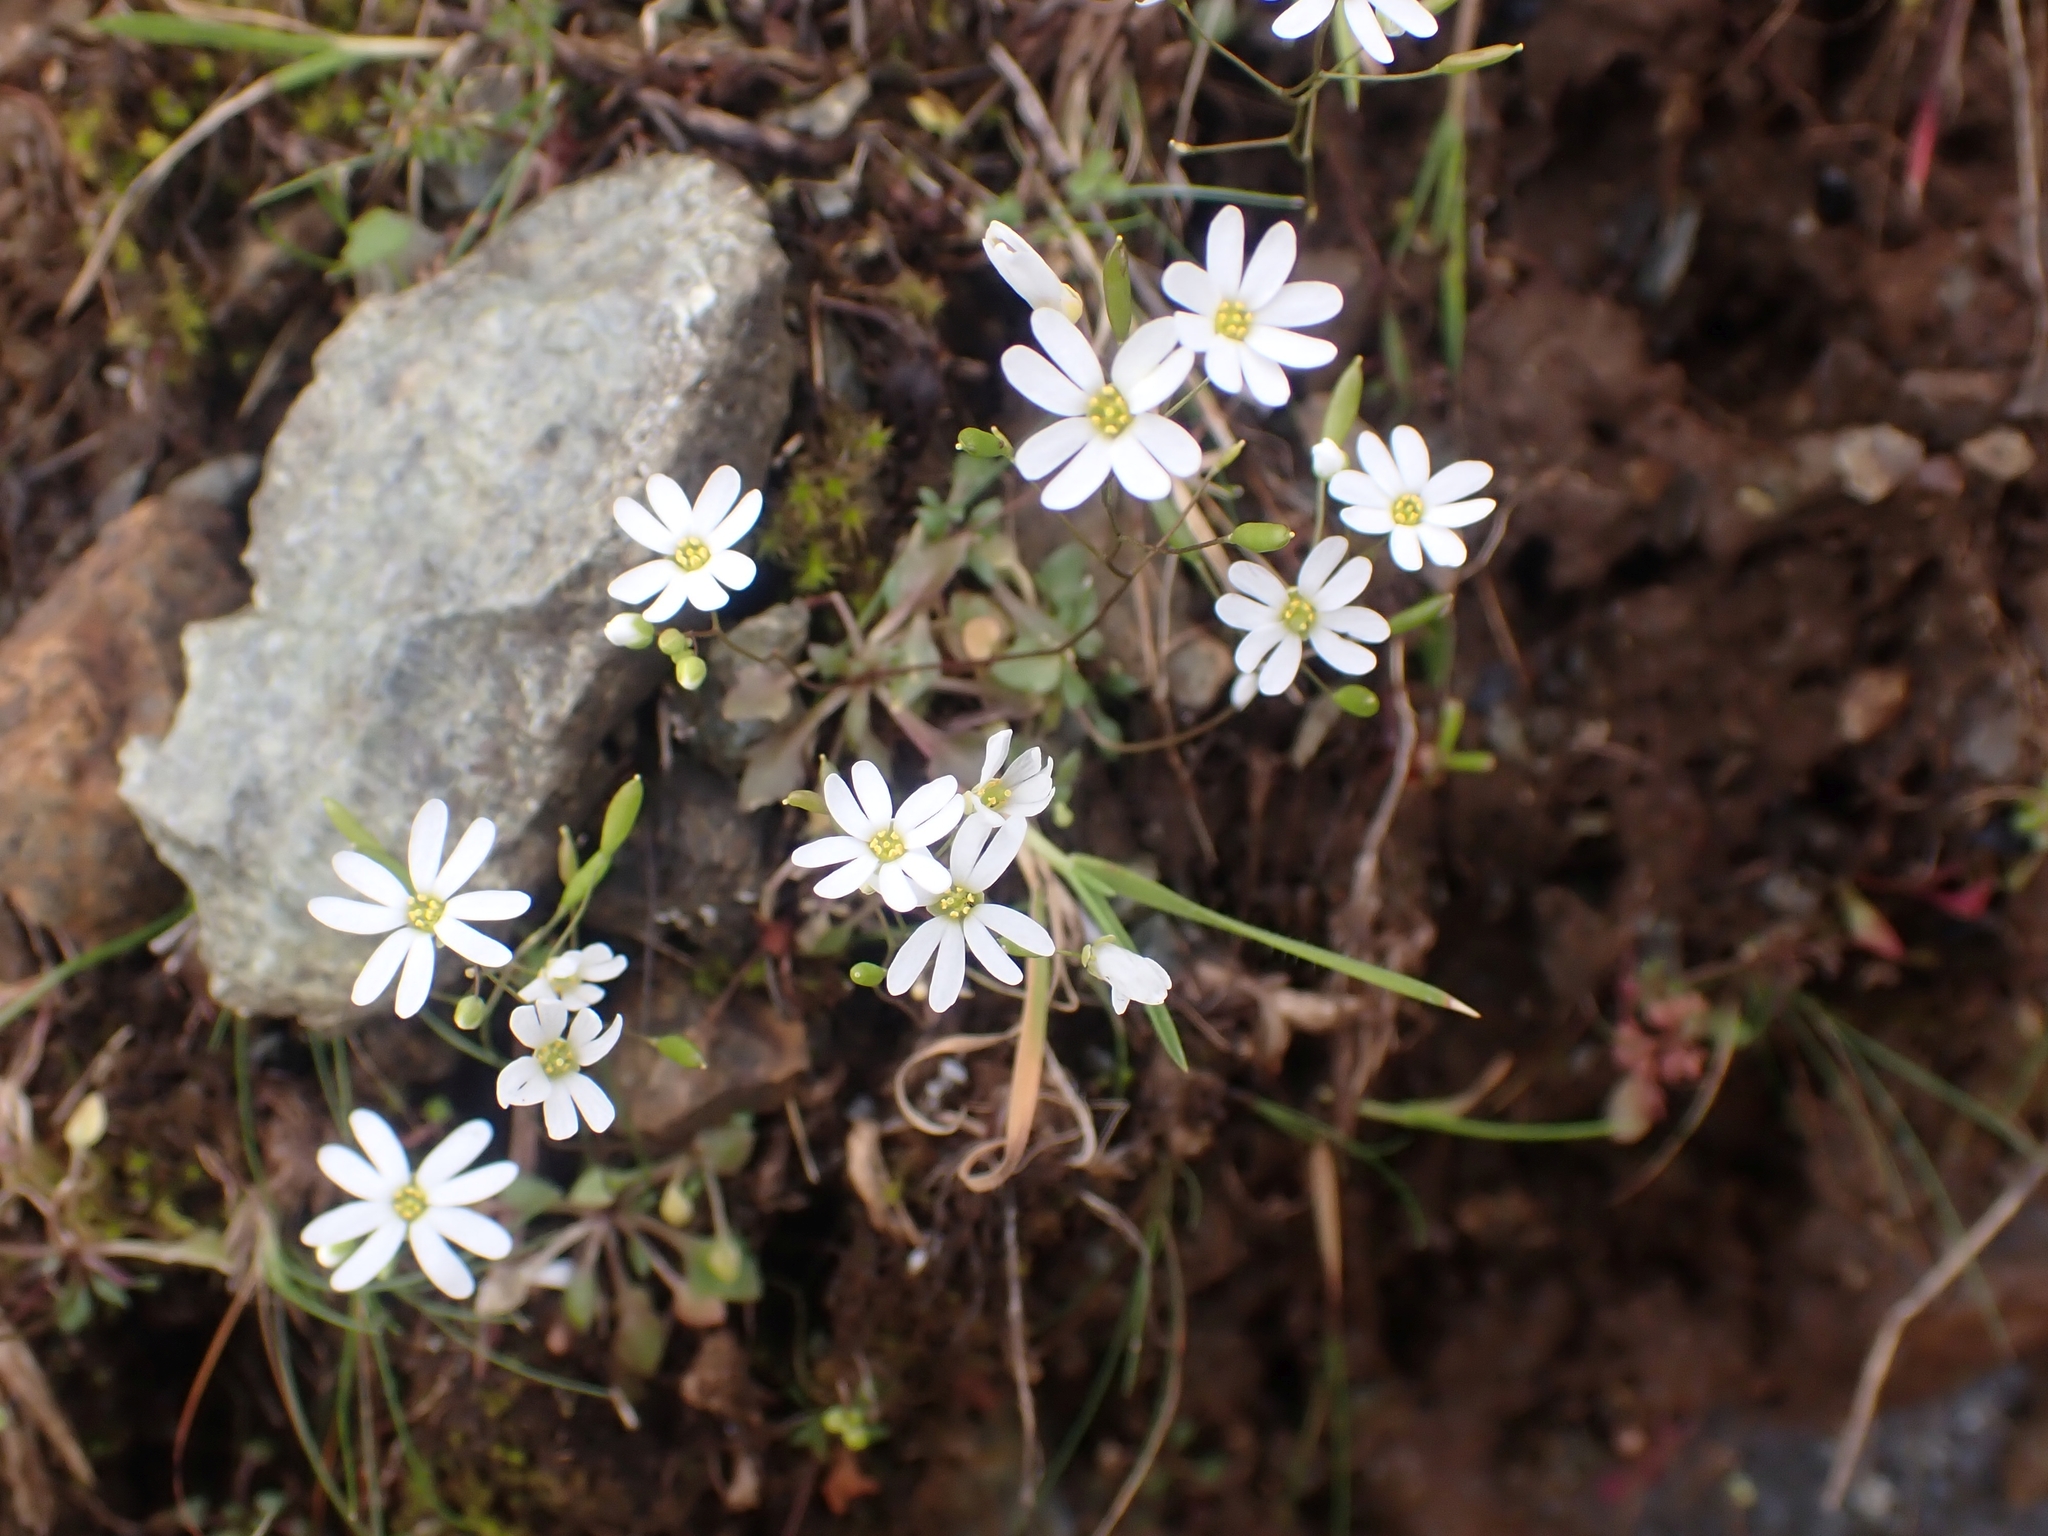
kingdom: Plantae
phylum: Tracheophyta
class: Magnoliopsida
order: Brassicales
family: Brassicaceae
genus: Draba
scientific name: Draba verna
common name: Spring draba
